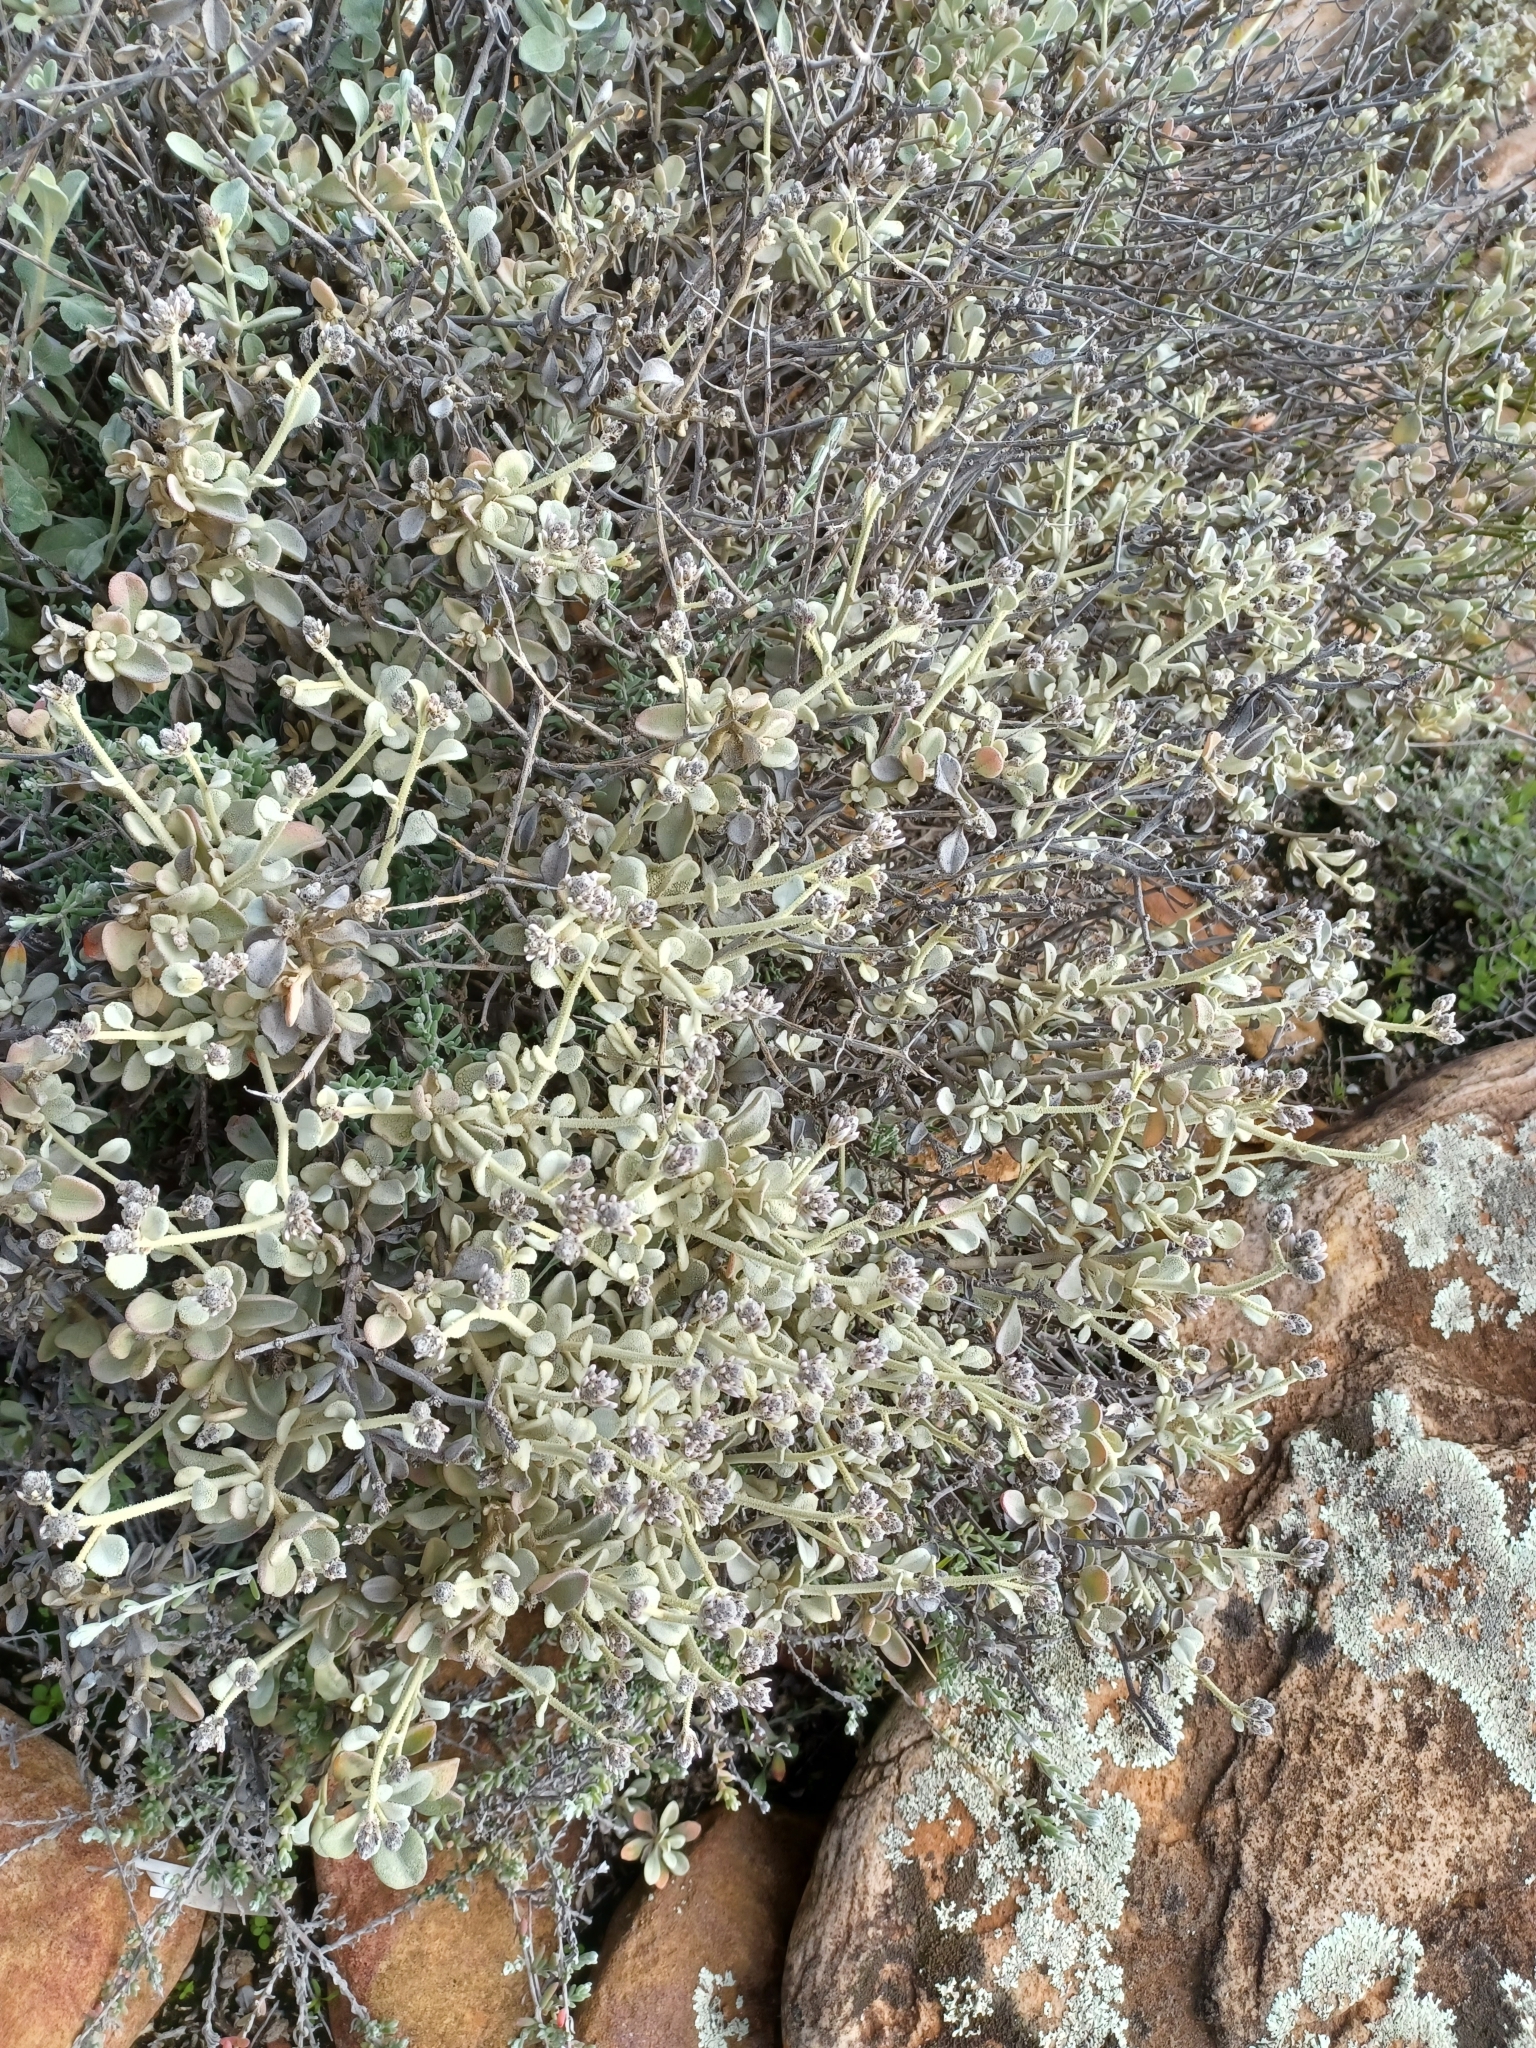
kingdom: Plantae
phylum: Tracheophyta
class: Magnoliopsida
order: Caryophyllales
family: Amaranthaceae
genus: Ptilotus
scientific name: Ptilotus obovatus
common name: Cottonbush
